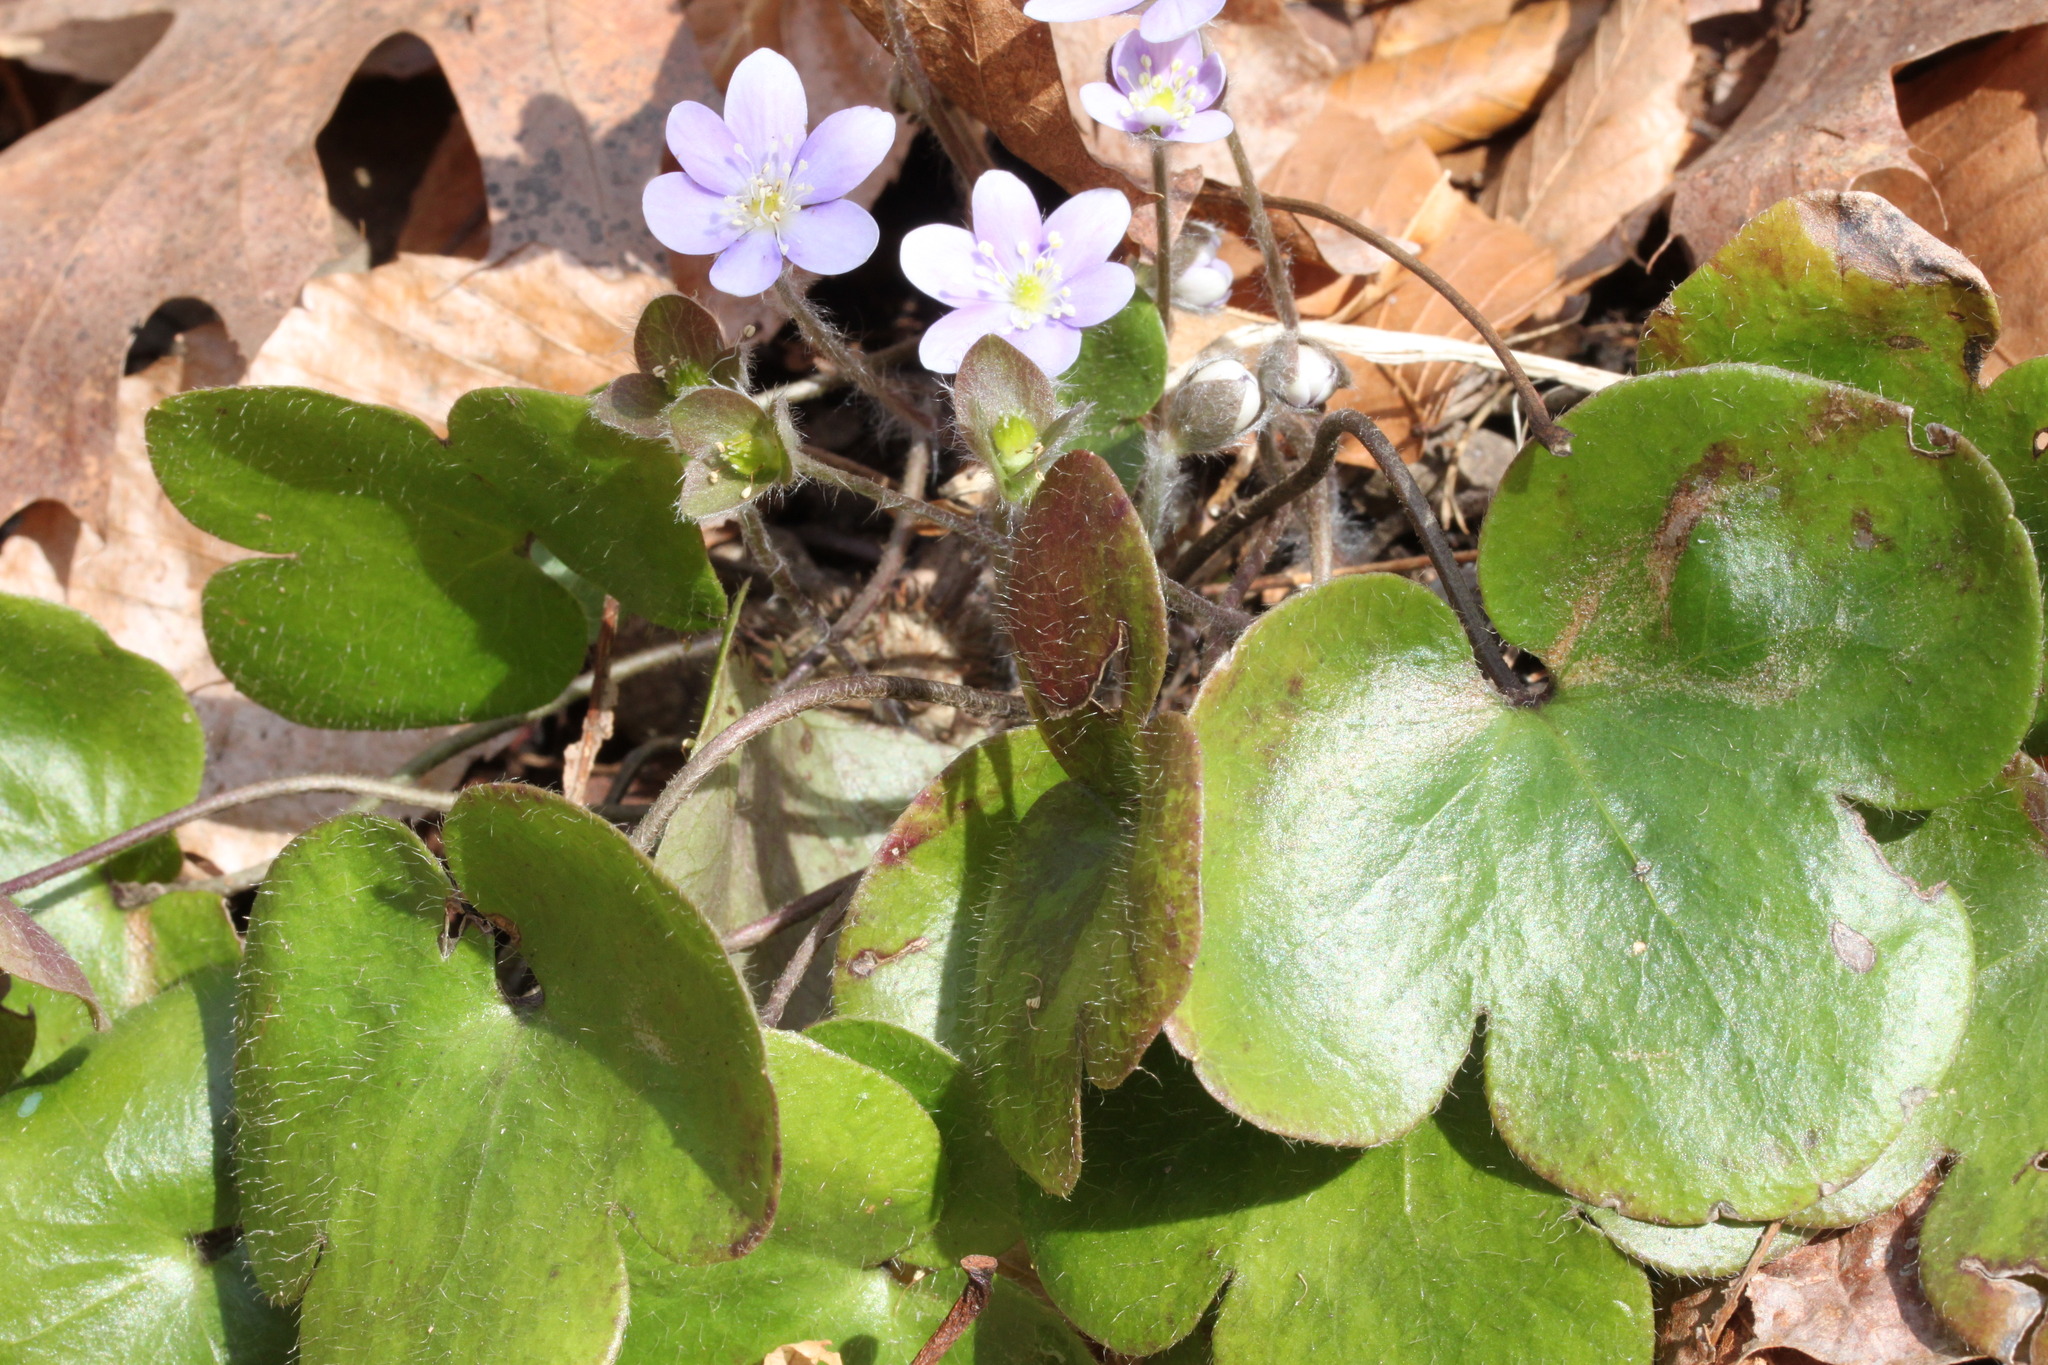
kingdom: Plantae
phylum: Tracheophyta
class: Magnoliopsida
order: Ranunculales
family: Ranunculaceae
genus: Hepatica
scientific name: Hepatica americana
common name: American hepatica
